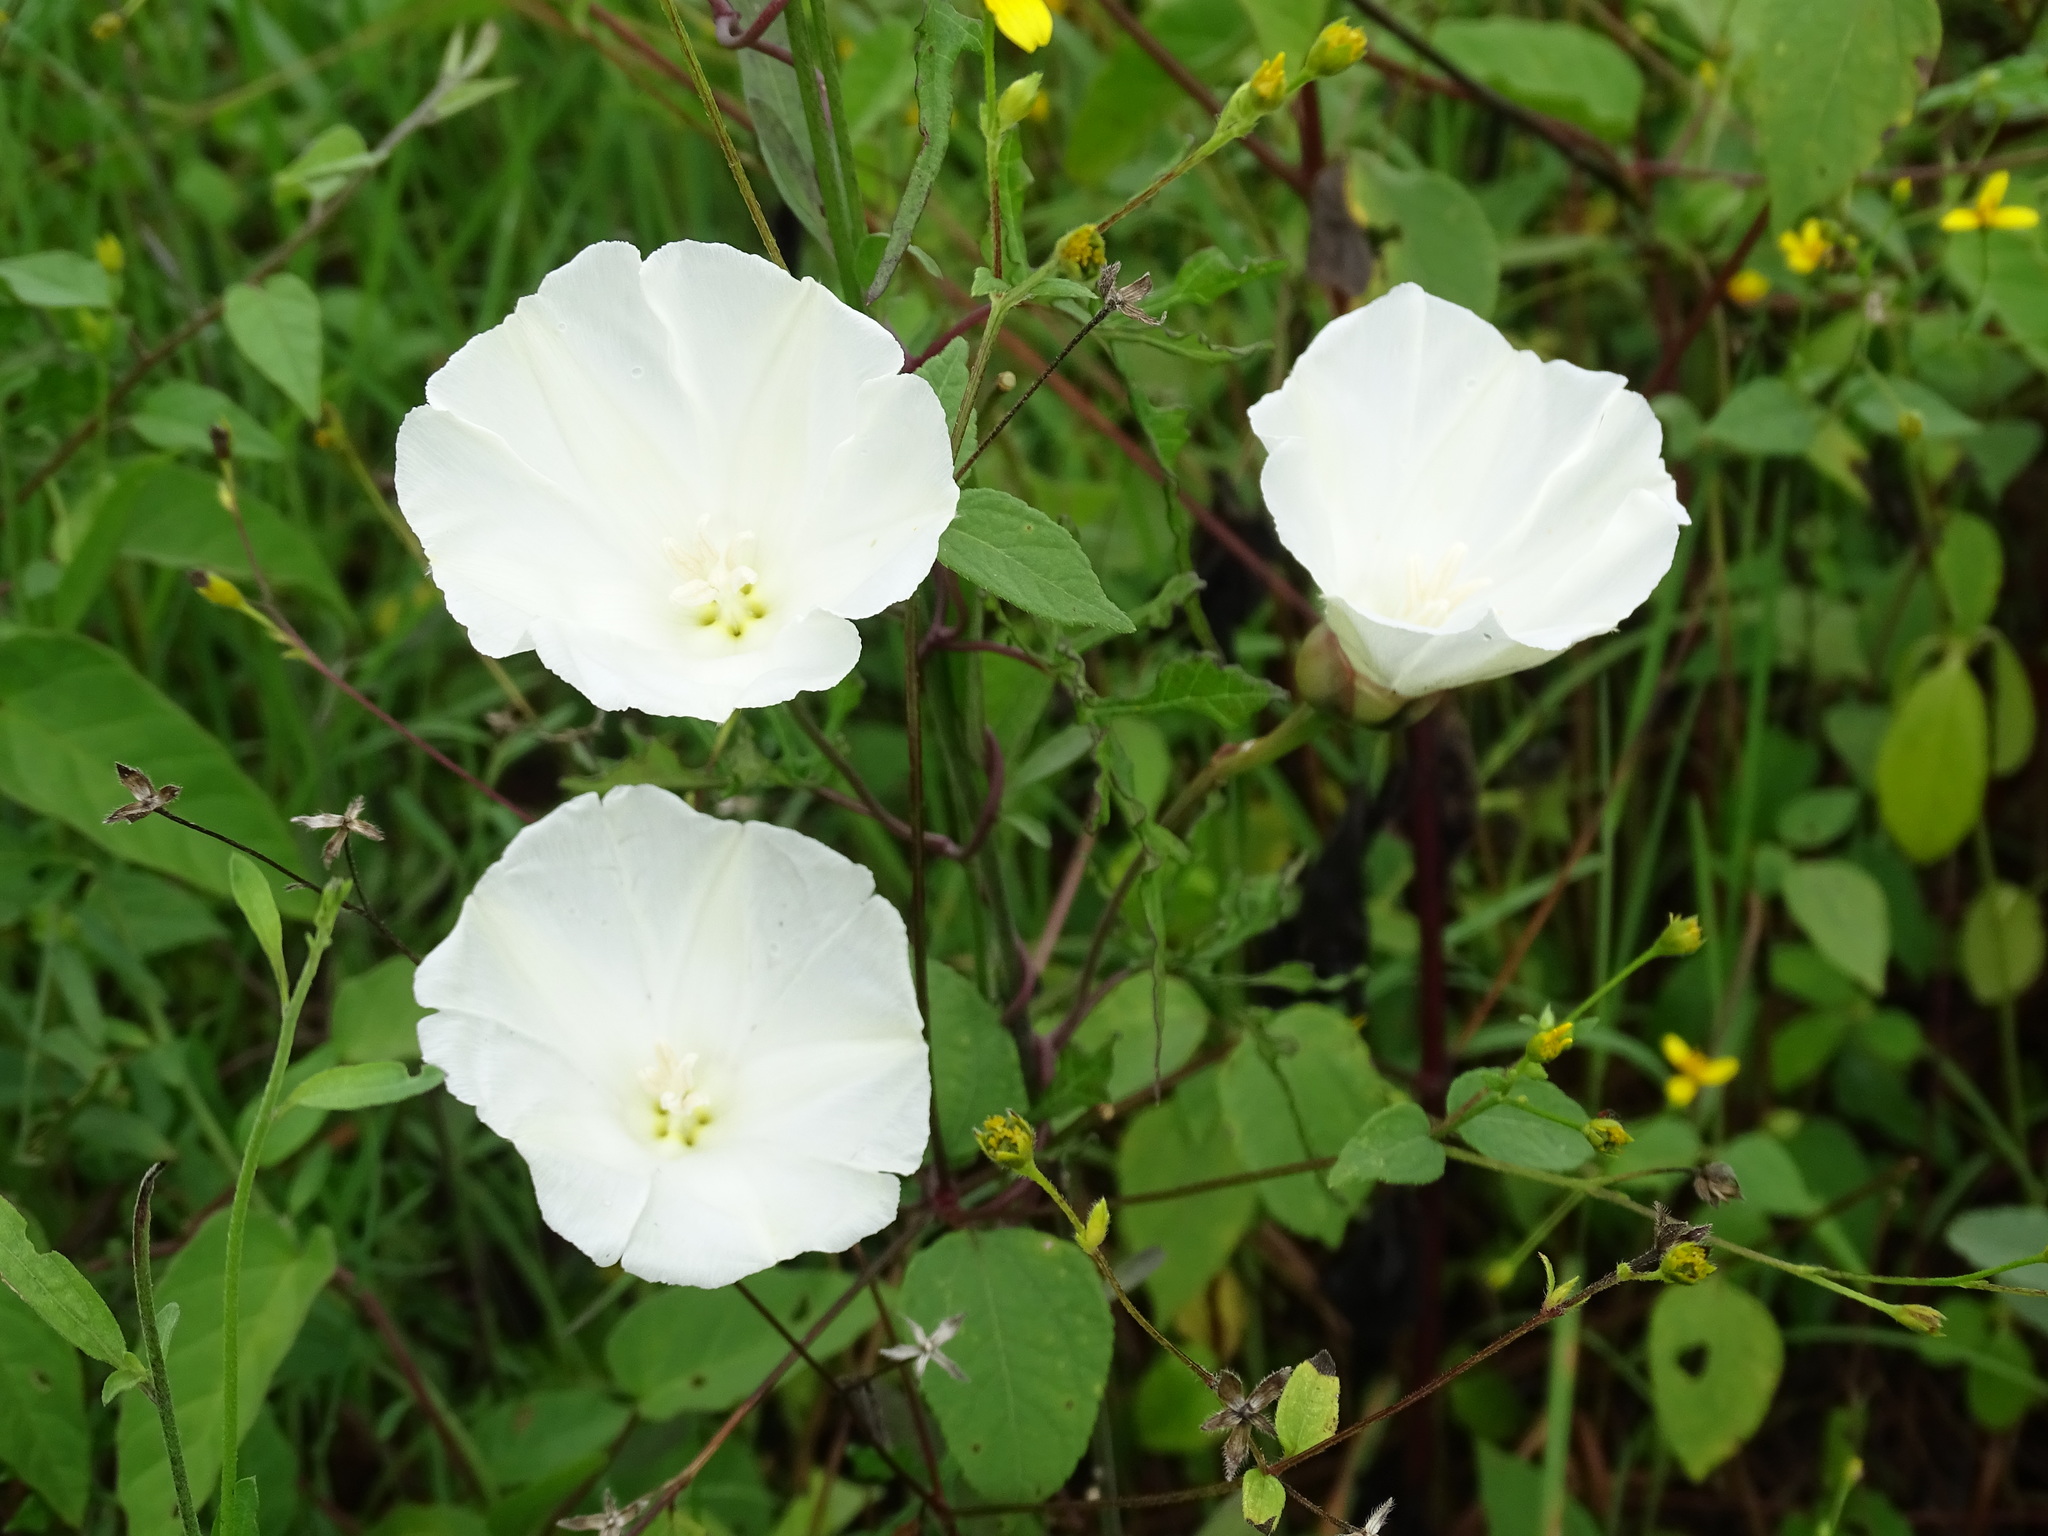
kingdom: Plantae
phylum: Tracheophyta
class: Magnoliopsida
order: Solanales
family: Convolvulaceae
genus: Operculina
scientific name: Operculina pinnatifida
